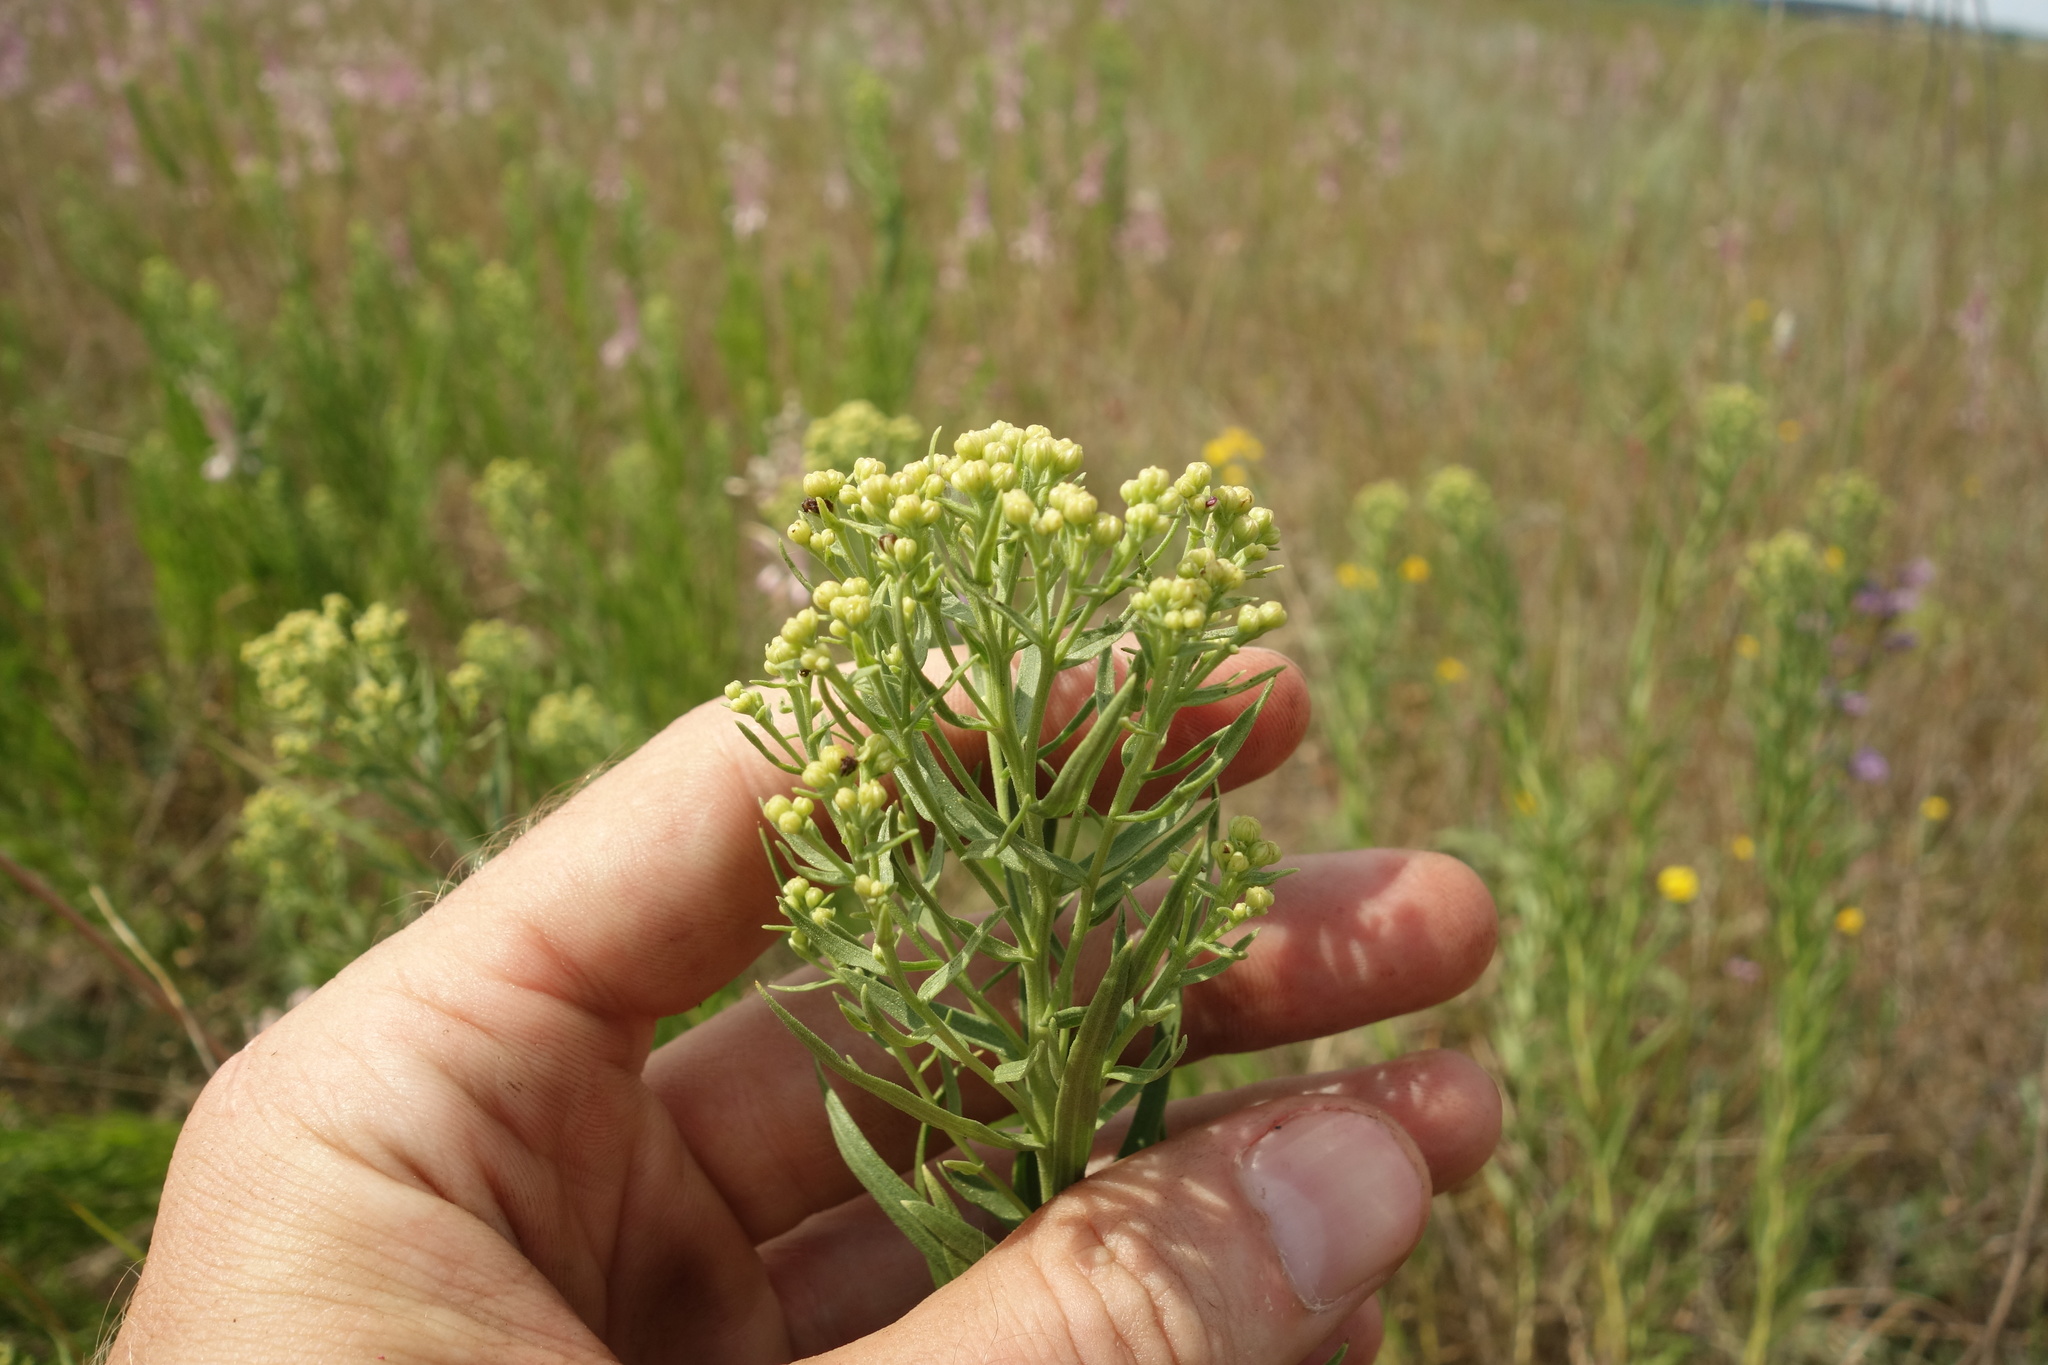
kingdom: Plantae
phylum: Tracheophyta
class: Magnoliopsida
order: Asterales
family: Asteraceae
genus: Galatella
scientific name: Galatella biflora
